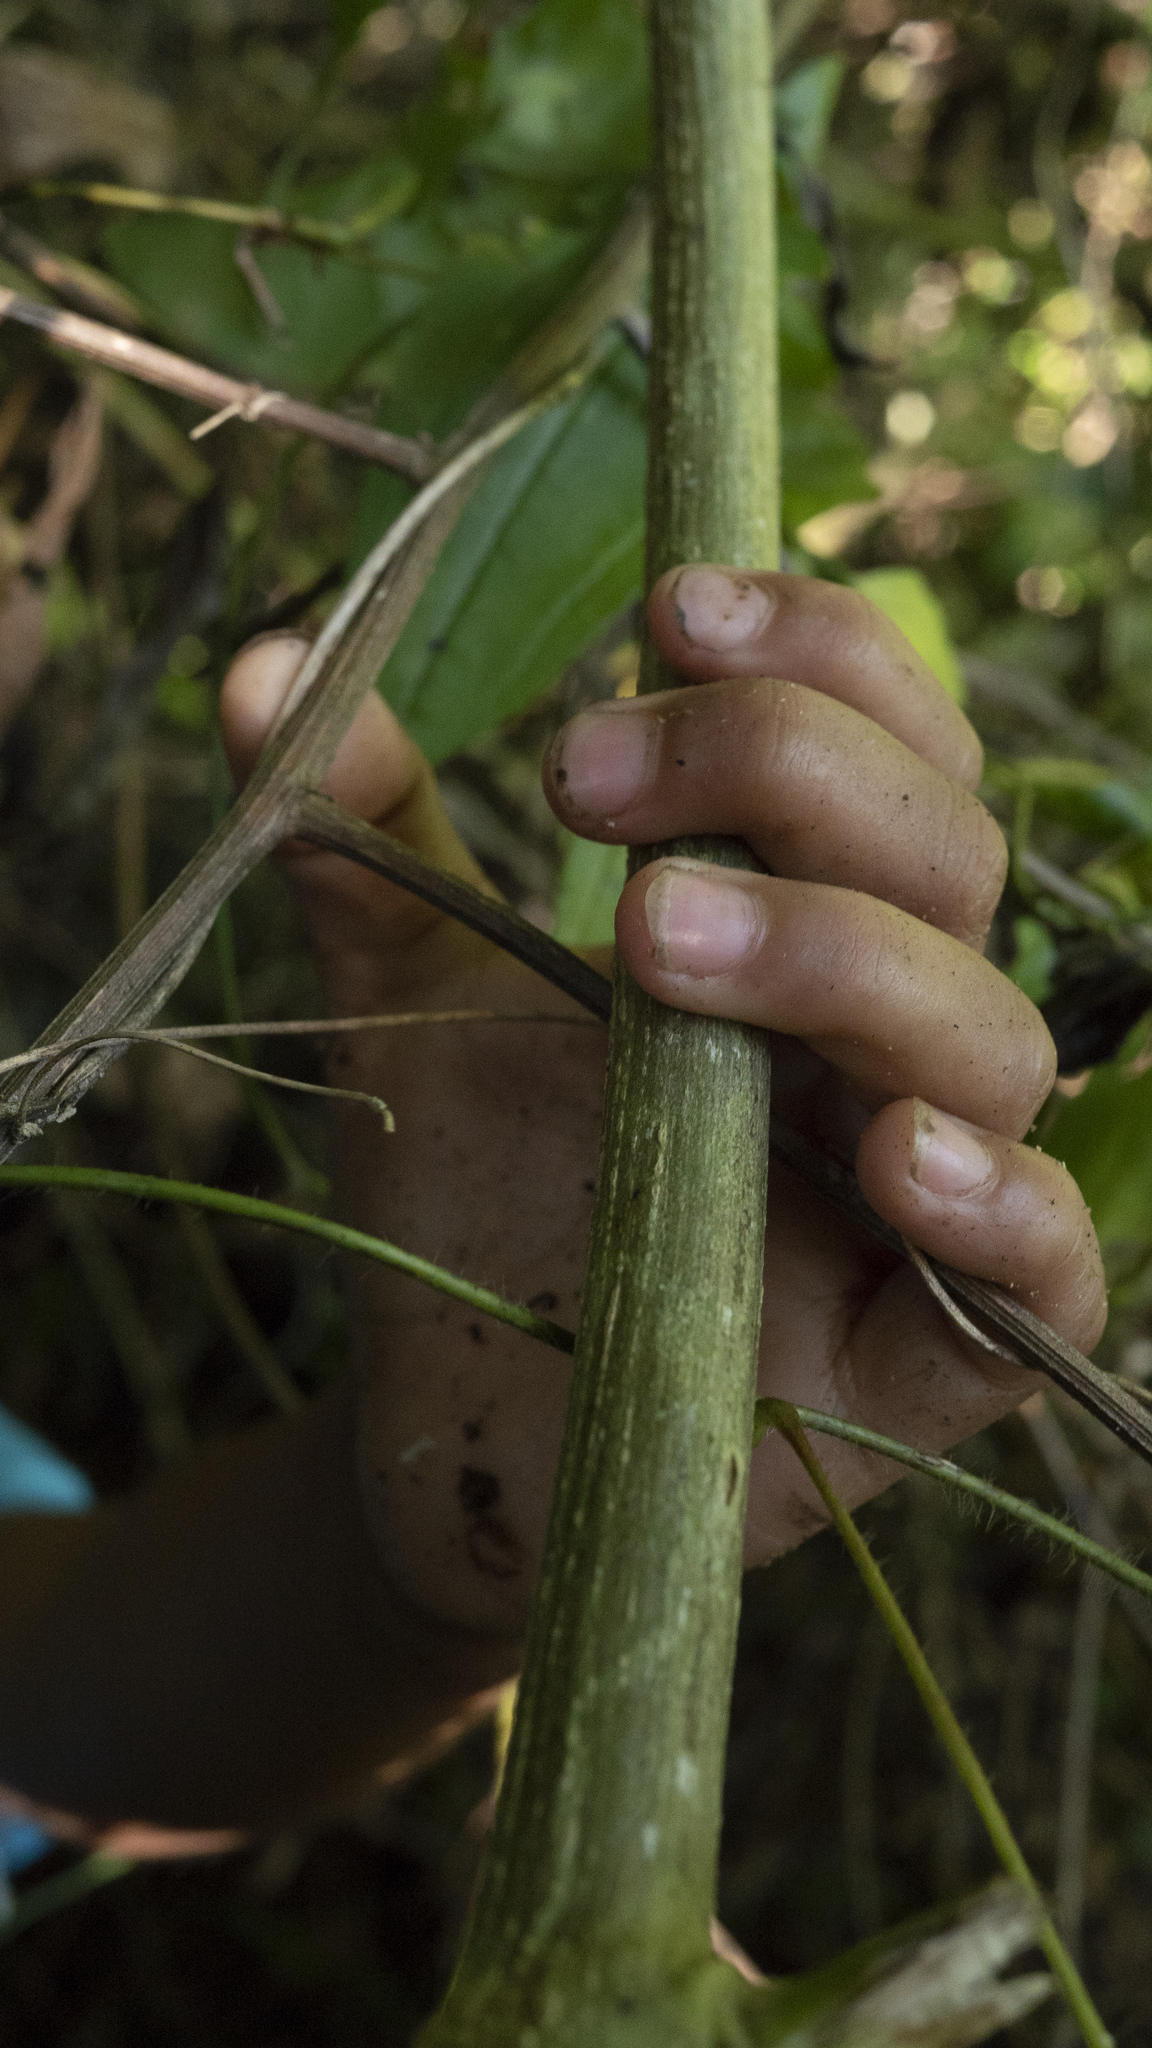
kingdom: Plantae
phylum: Tracheophyta
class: Magnoliopsida
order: Asterales
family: Asteraceae
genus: Baccharis
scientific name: Baccharis trinervis
